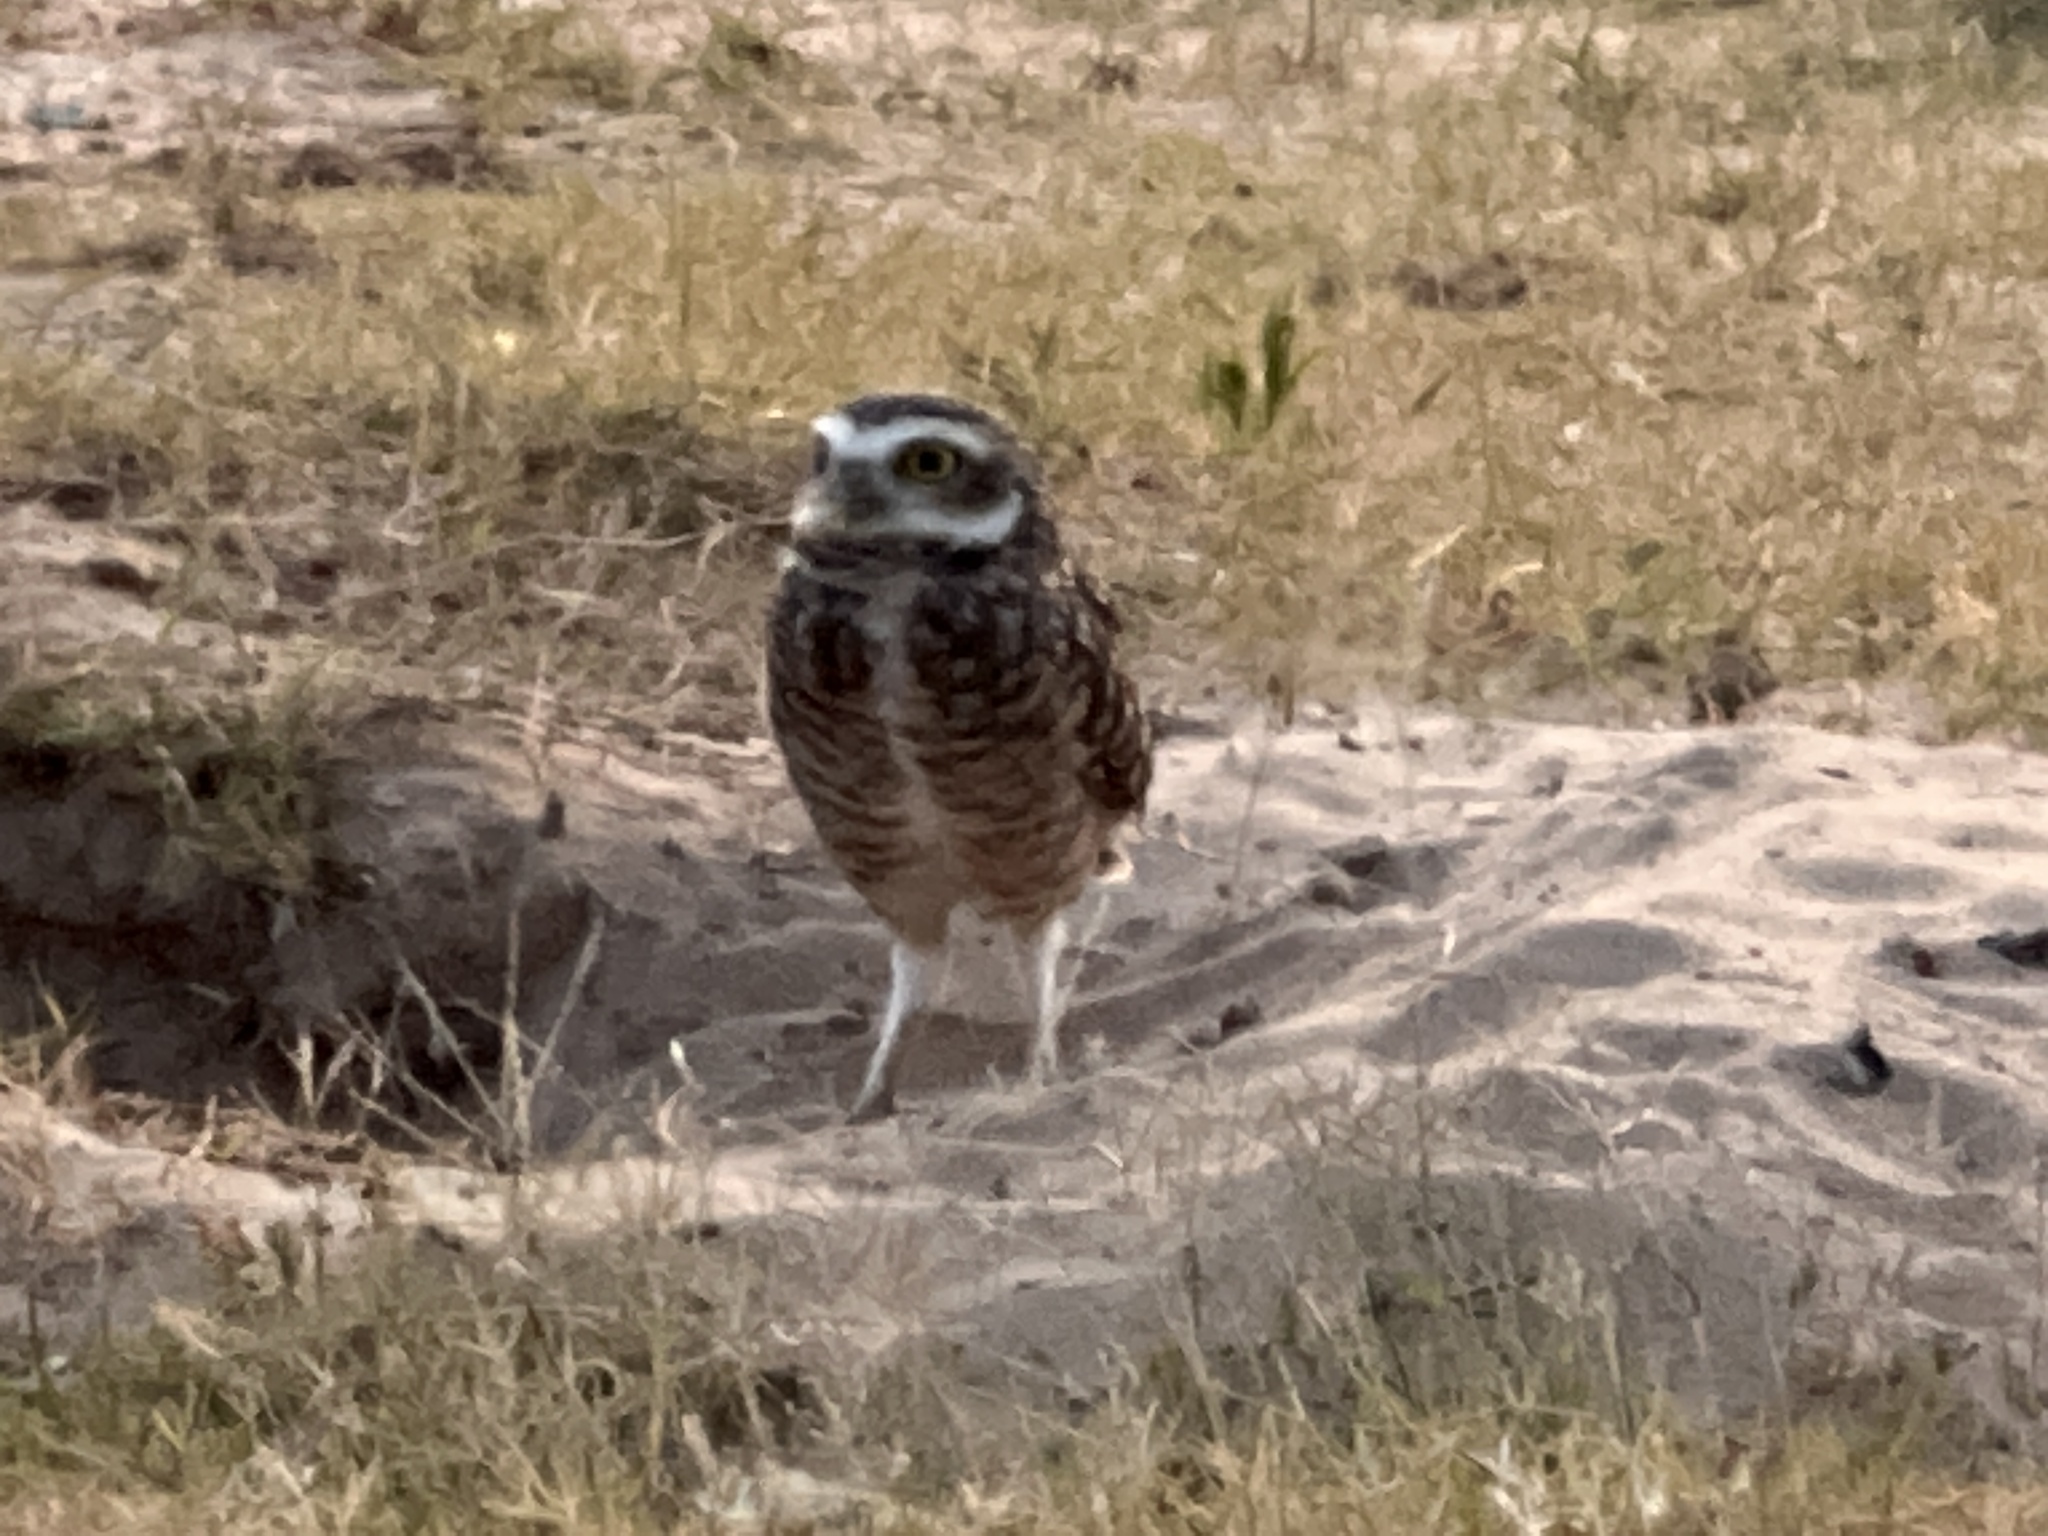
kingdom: Animalia
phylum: Chordata
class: Aves
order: Strigiformes
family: Strigidae
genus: Athene
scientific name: Athene cunicularia
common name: Burrowing owl
